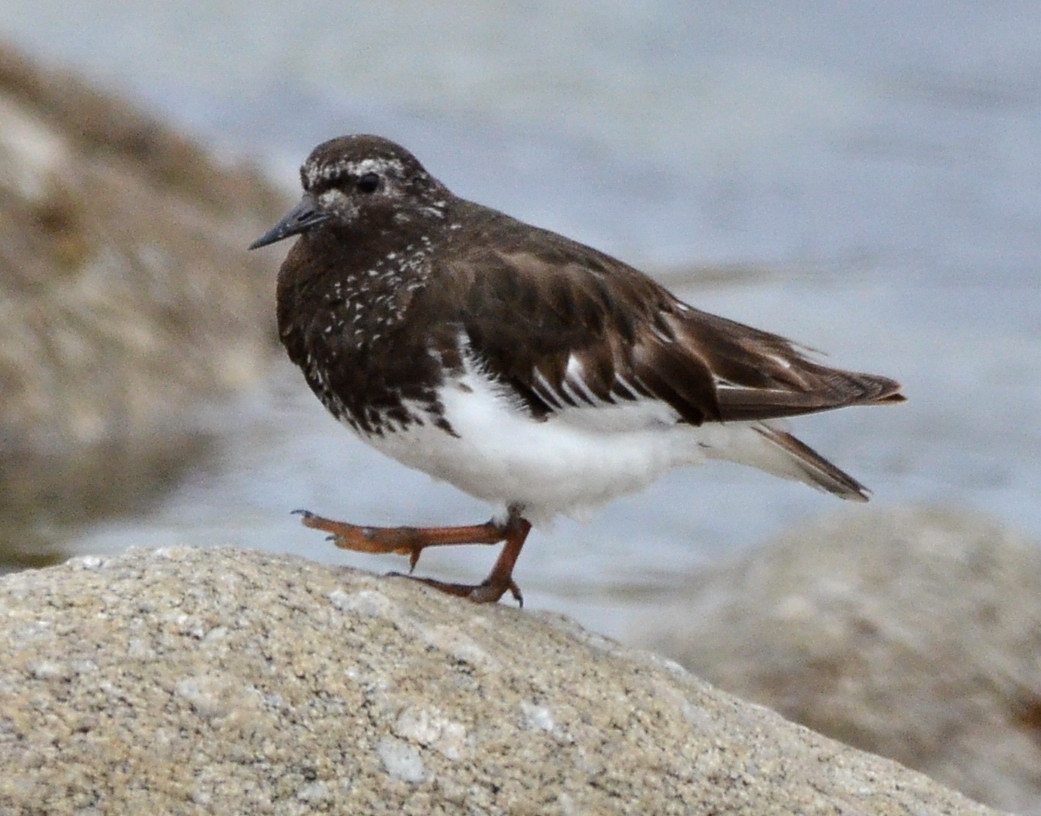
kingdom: Animalia
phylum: Chordata
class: Aves
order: Charadriiformes
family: Scolopacidae
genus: Arenaria
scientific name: Arenaria melanocephala
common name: Black turnstone
